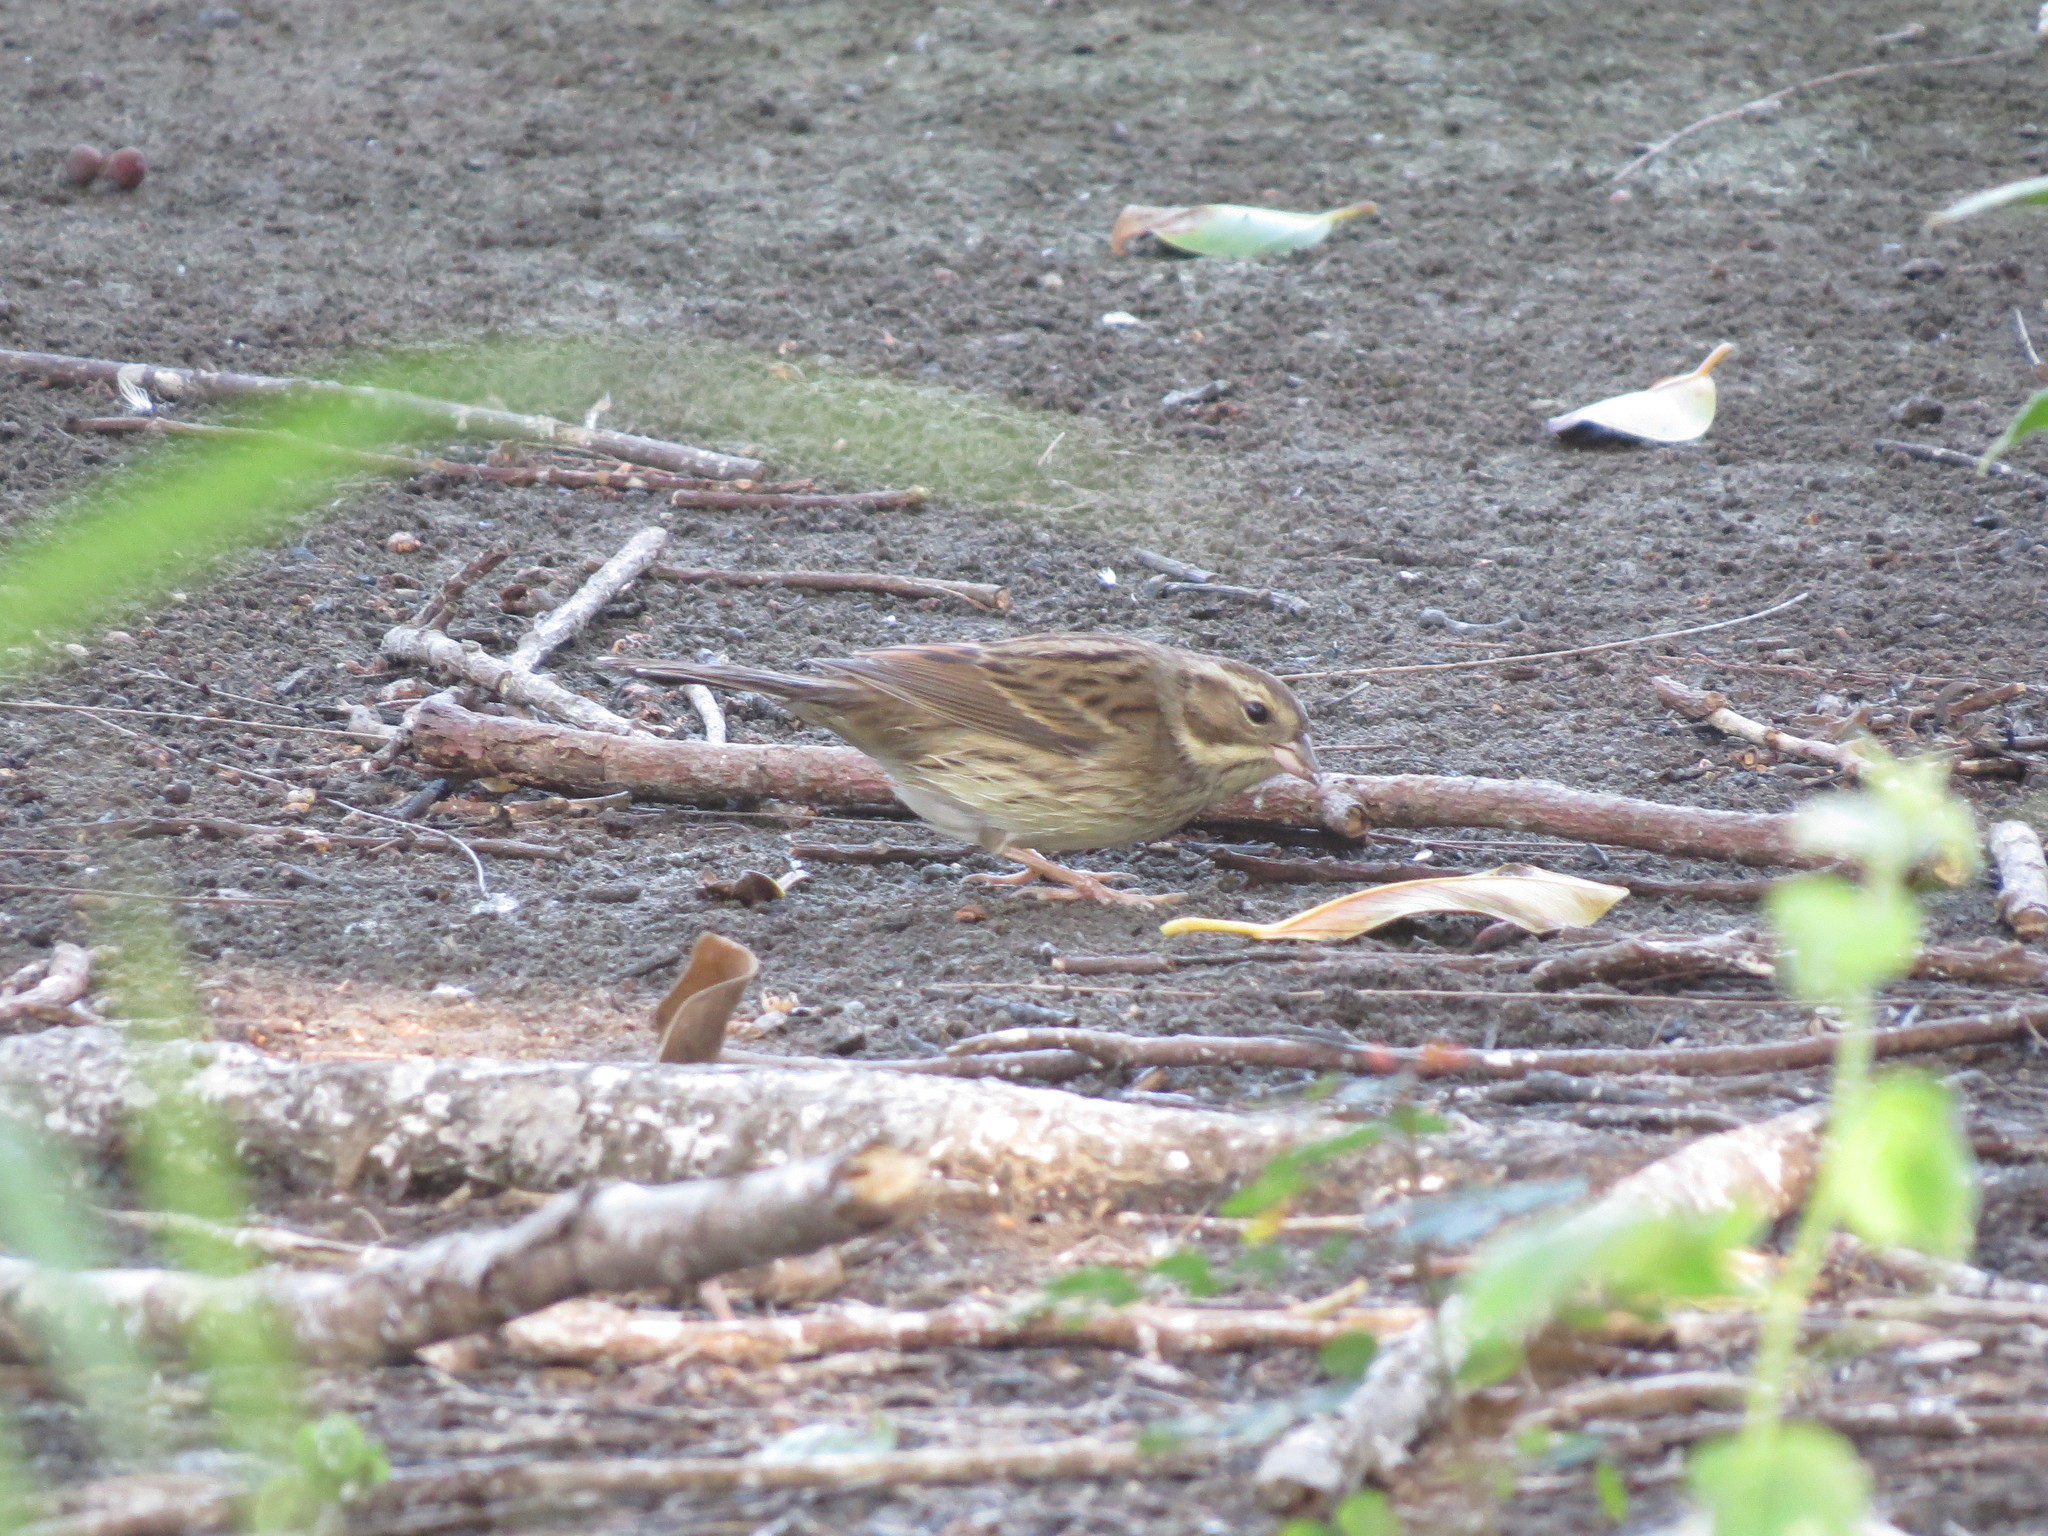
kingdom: Animalia
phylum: Chordata
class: Aves
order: Passeriformes
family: Emberizidae
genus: Emberiza
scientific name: Emberiza spodocephala
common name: Black-faced bunting
